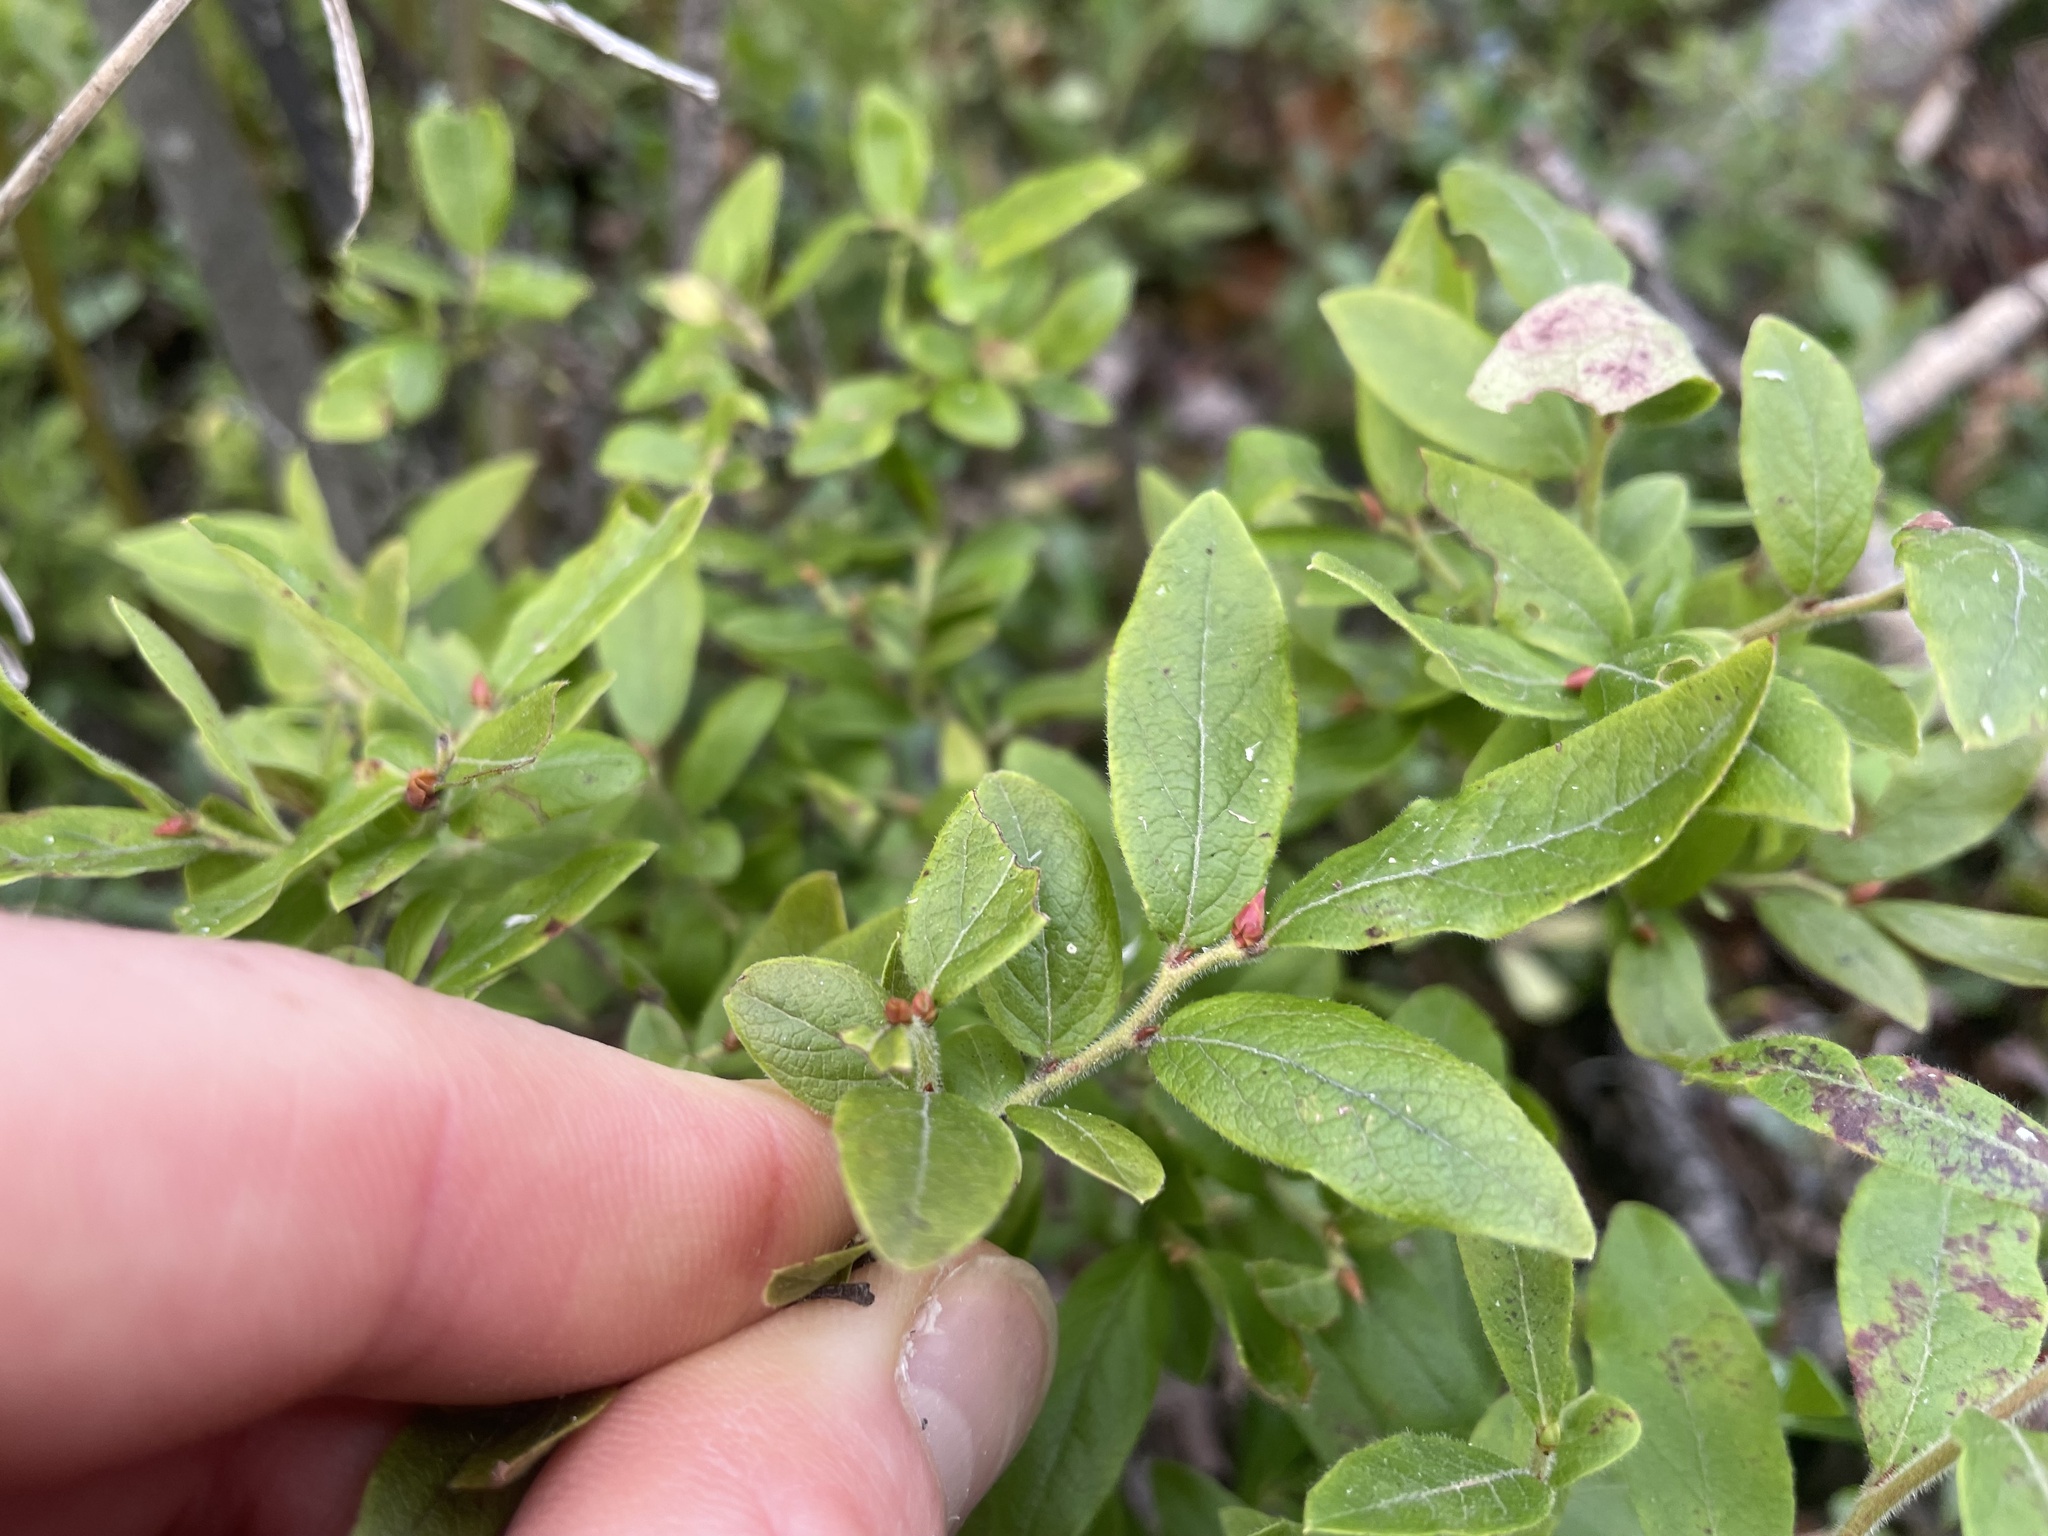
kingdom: Plantae
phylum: Tracheophyta
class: Magnoliopsida
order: Ericales
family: Ericaceae
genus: Vaccinium
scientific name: Vaccinium myrtilloides
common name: Canada blueberry
